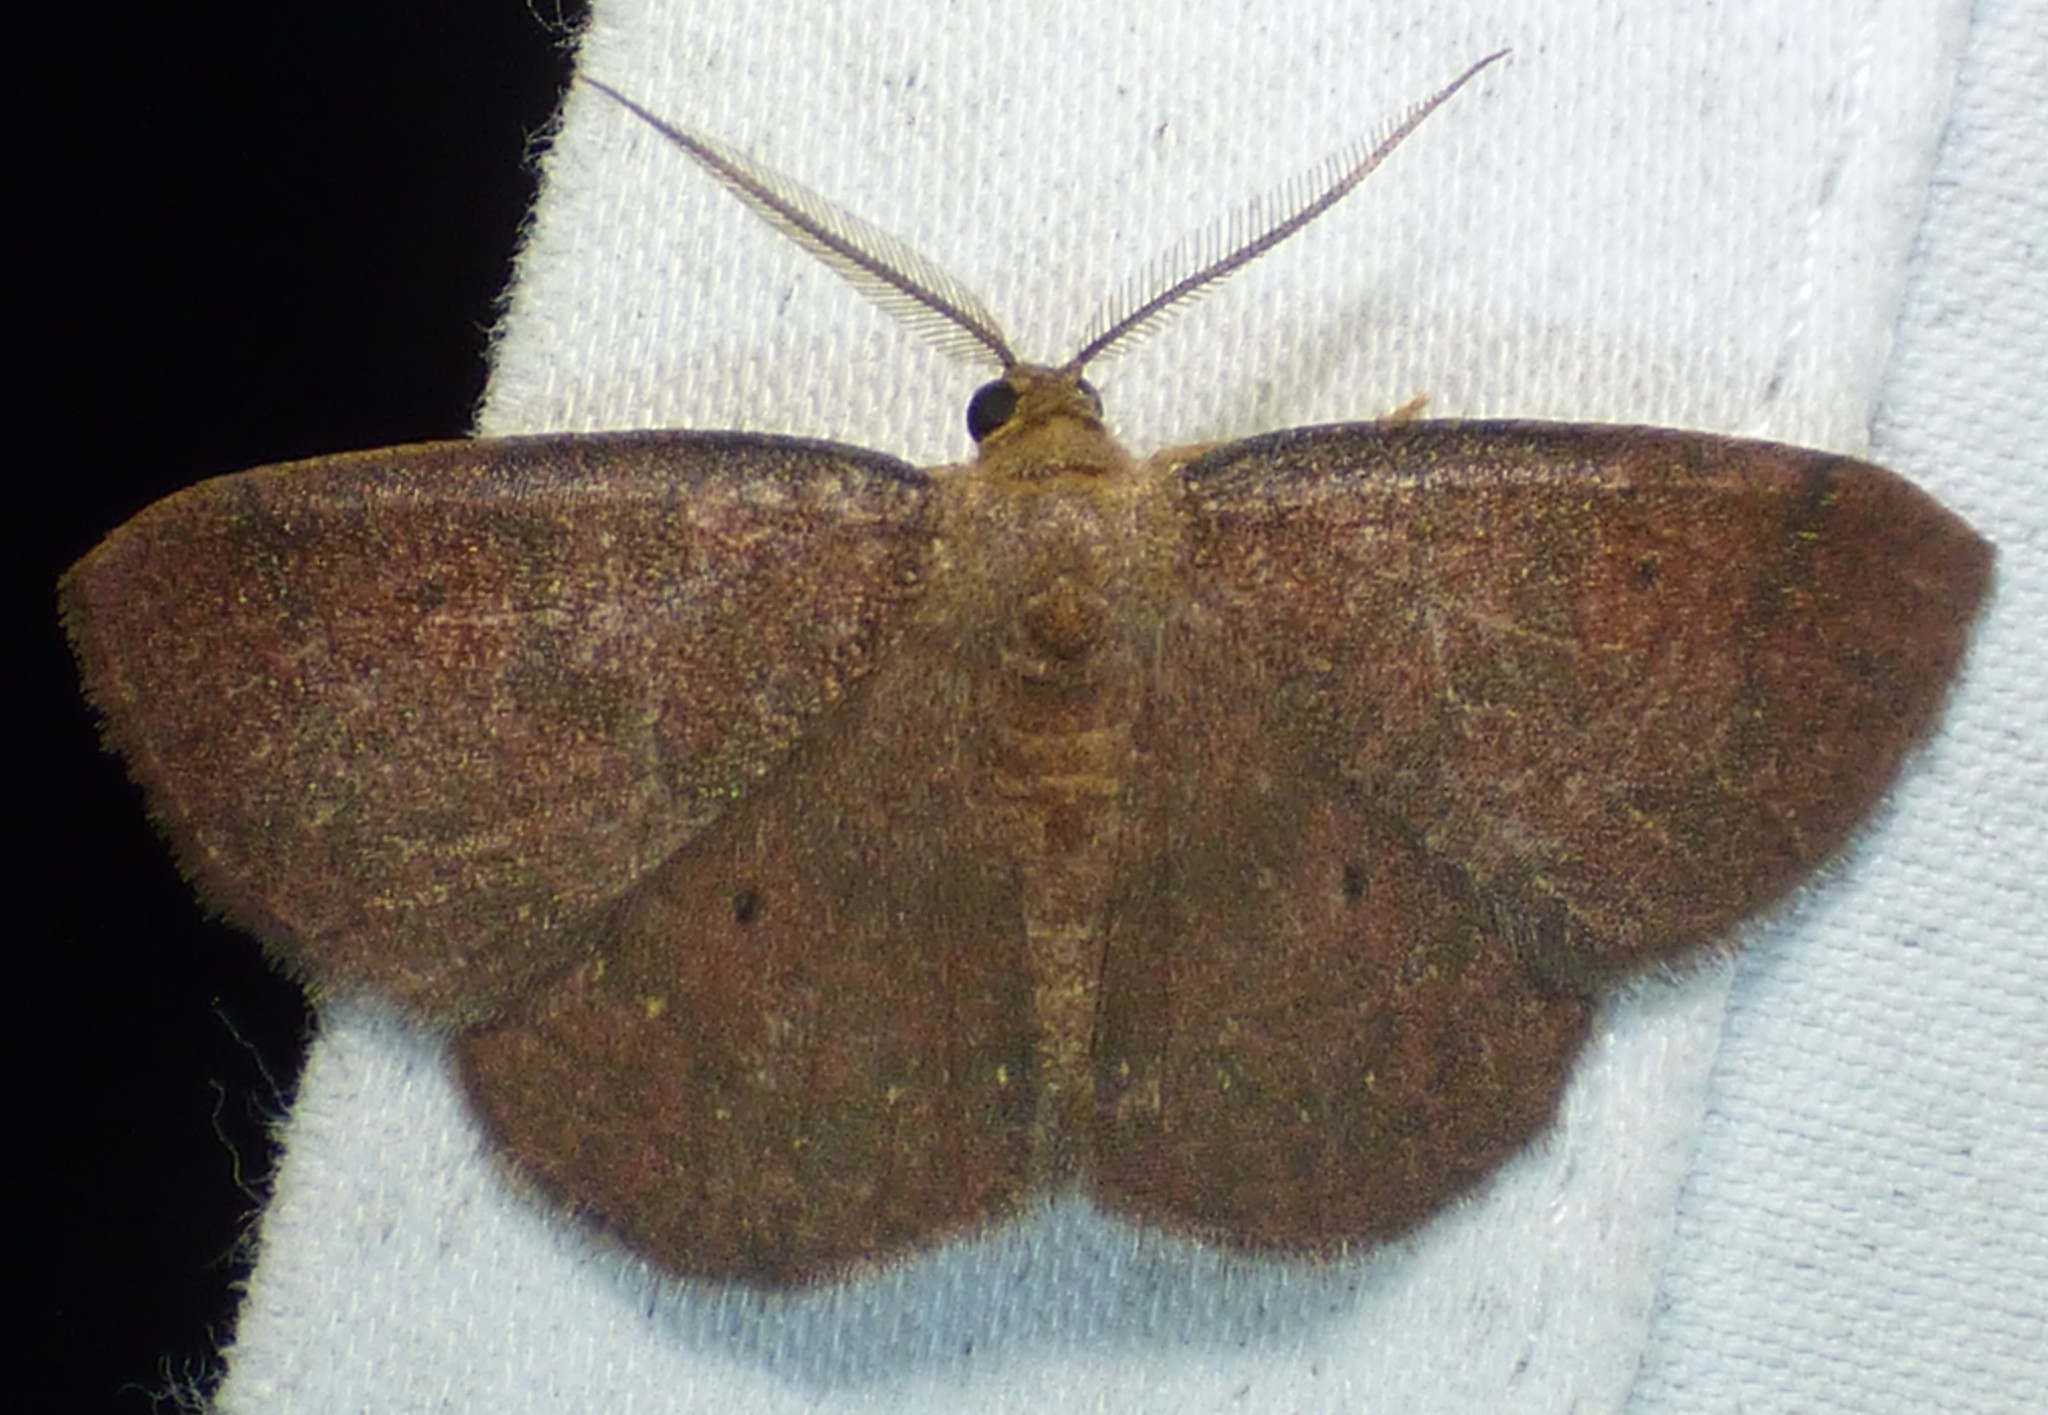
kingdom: Animalia
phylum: Arthropoda
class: Insecta
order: Lepidoptera
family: Geometridae
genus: Ilexia
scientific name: Ilexia intractata
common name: Black-dotted ruddy moth
